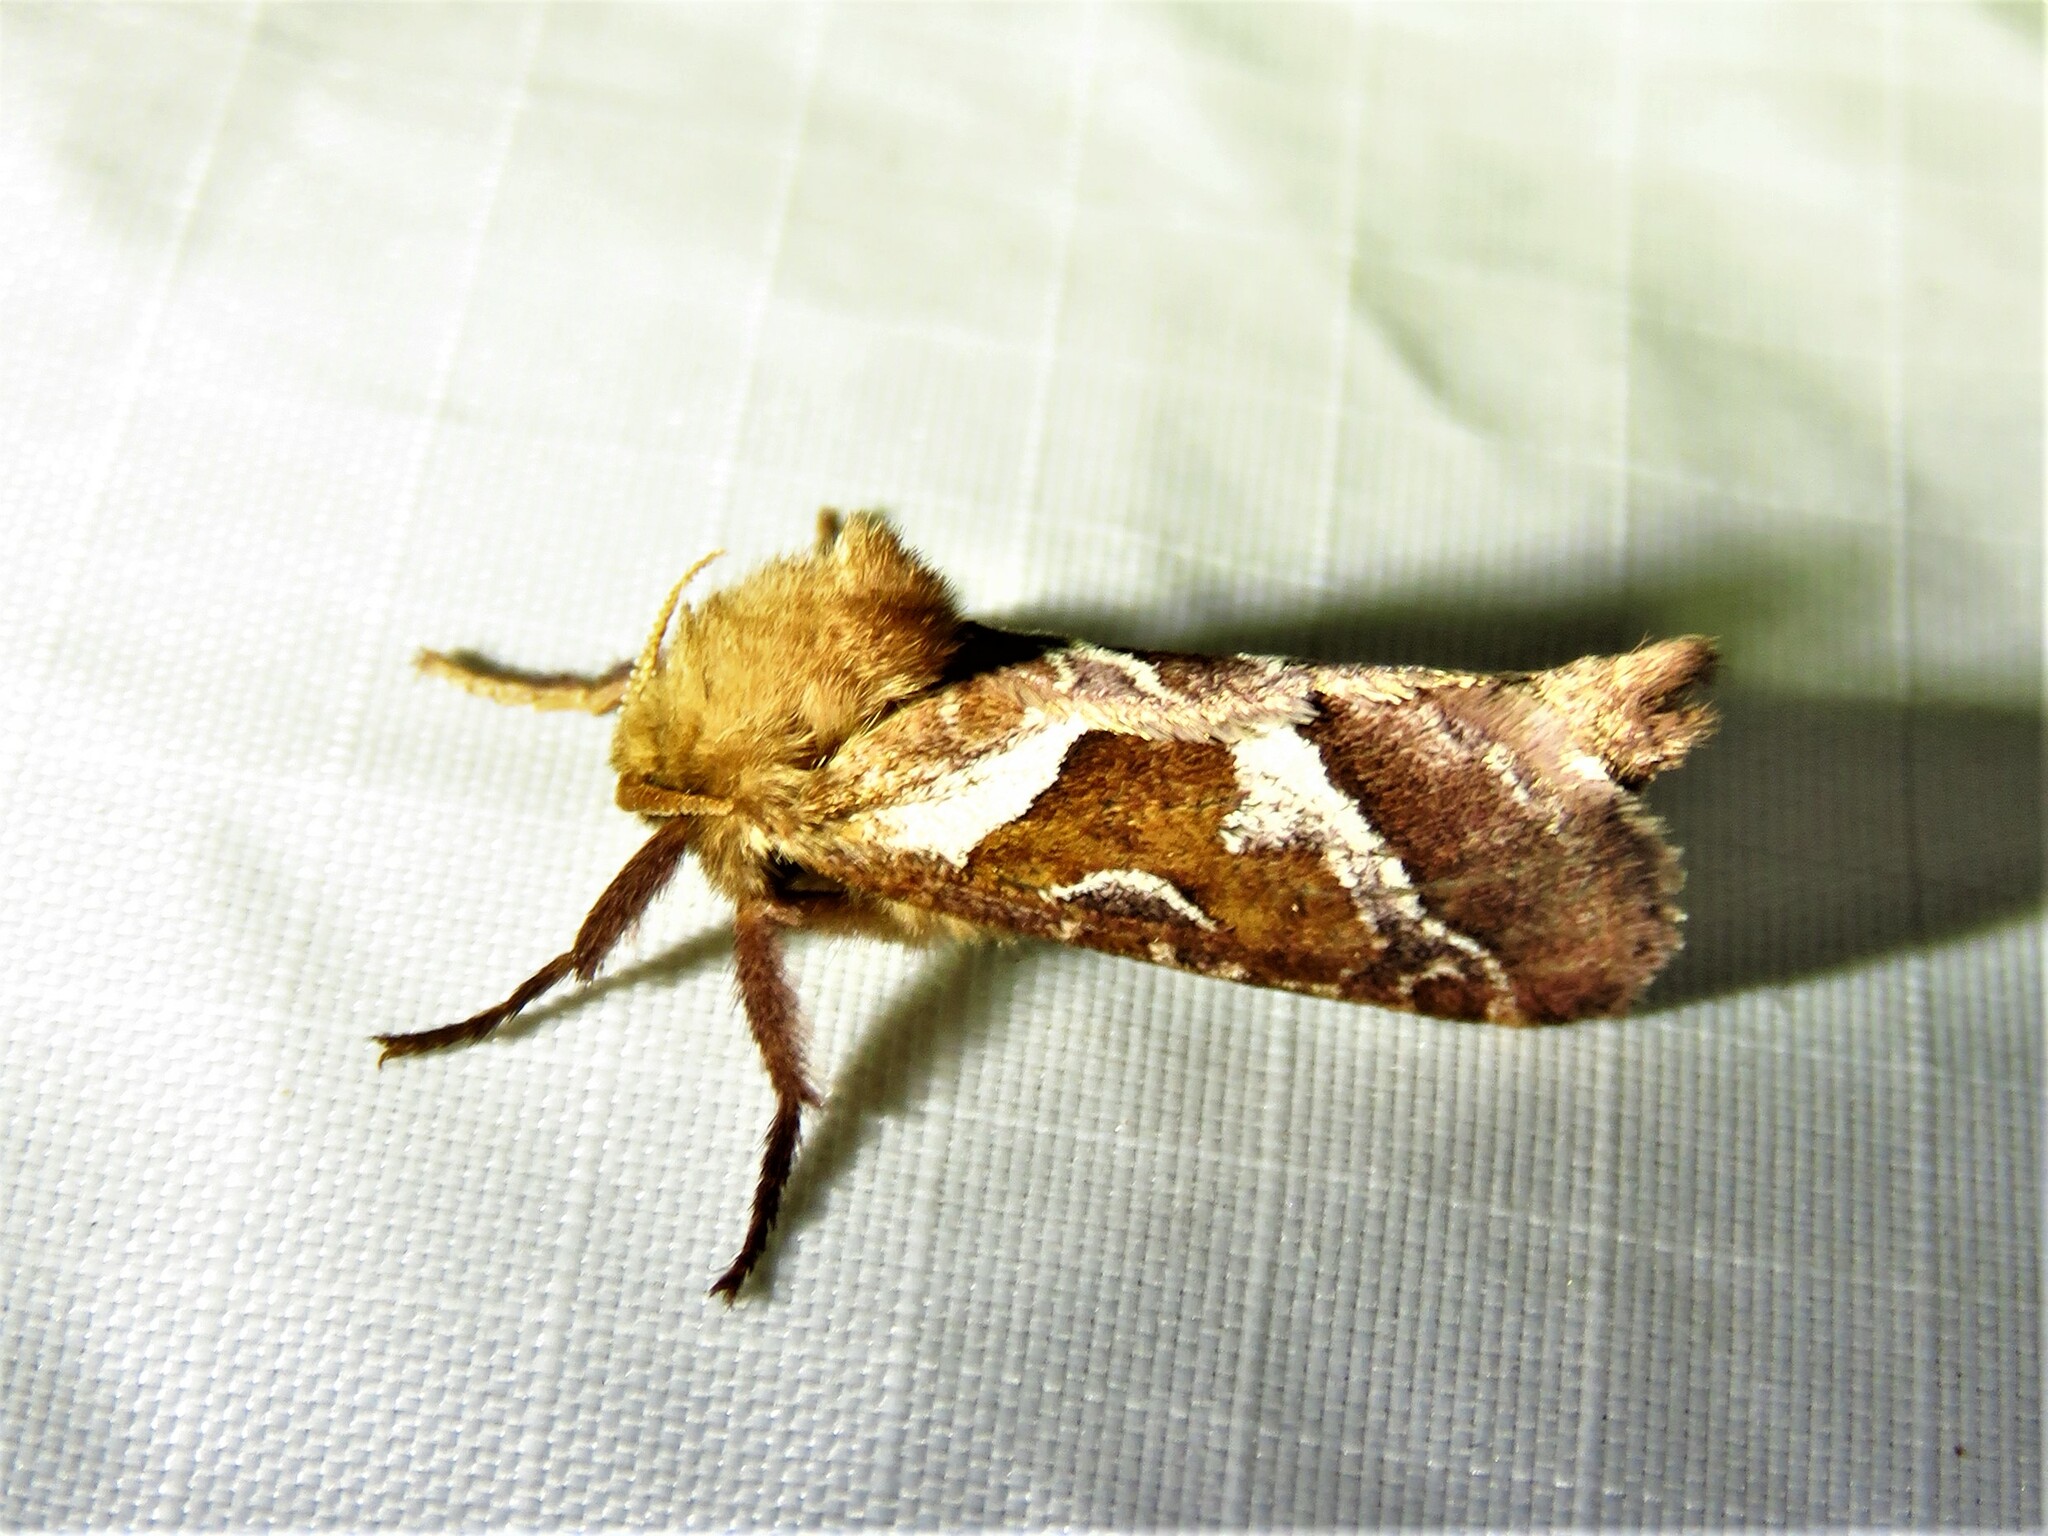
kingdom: Animalia
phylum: Arthropoda
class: Insecta
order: Lepidoptera
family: Hepialidae
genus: Triodia
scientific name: Triodia sylvina
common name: Orange swift
